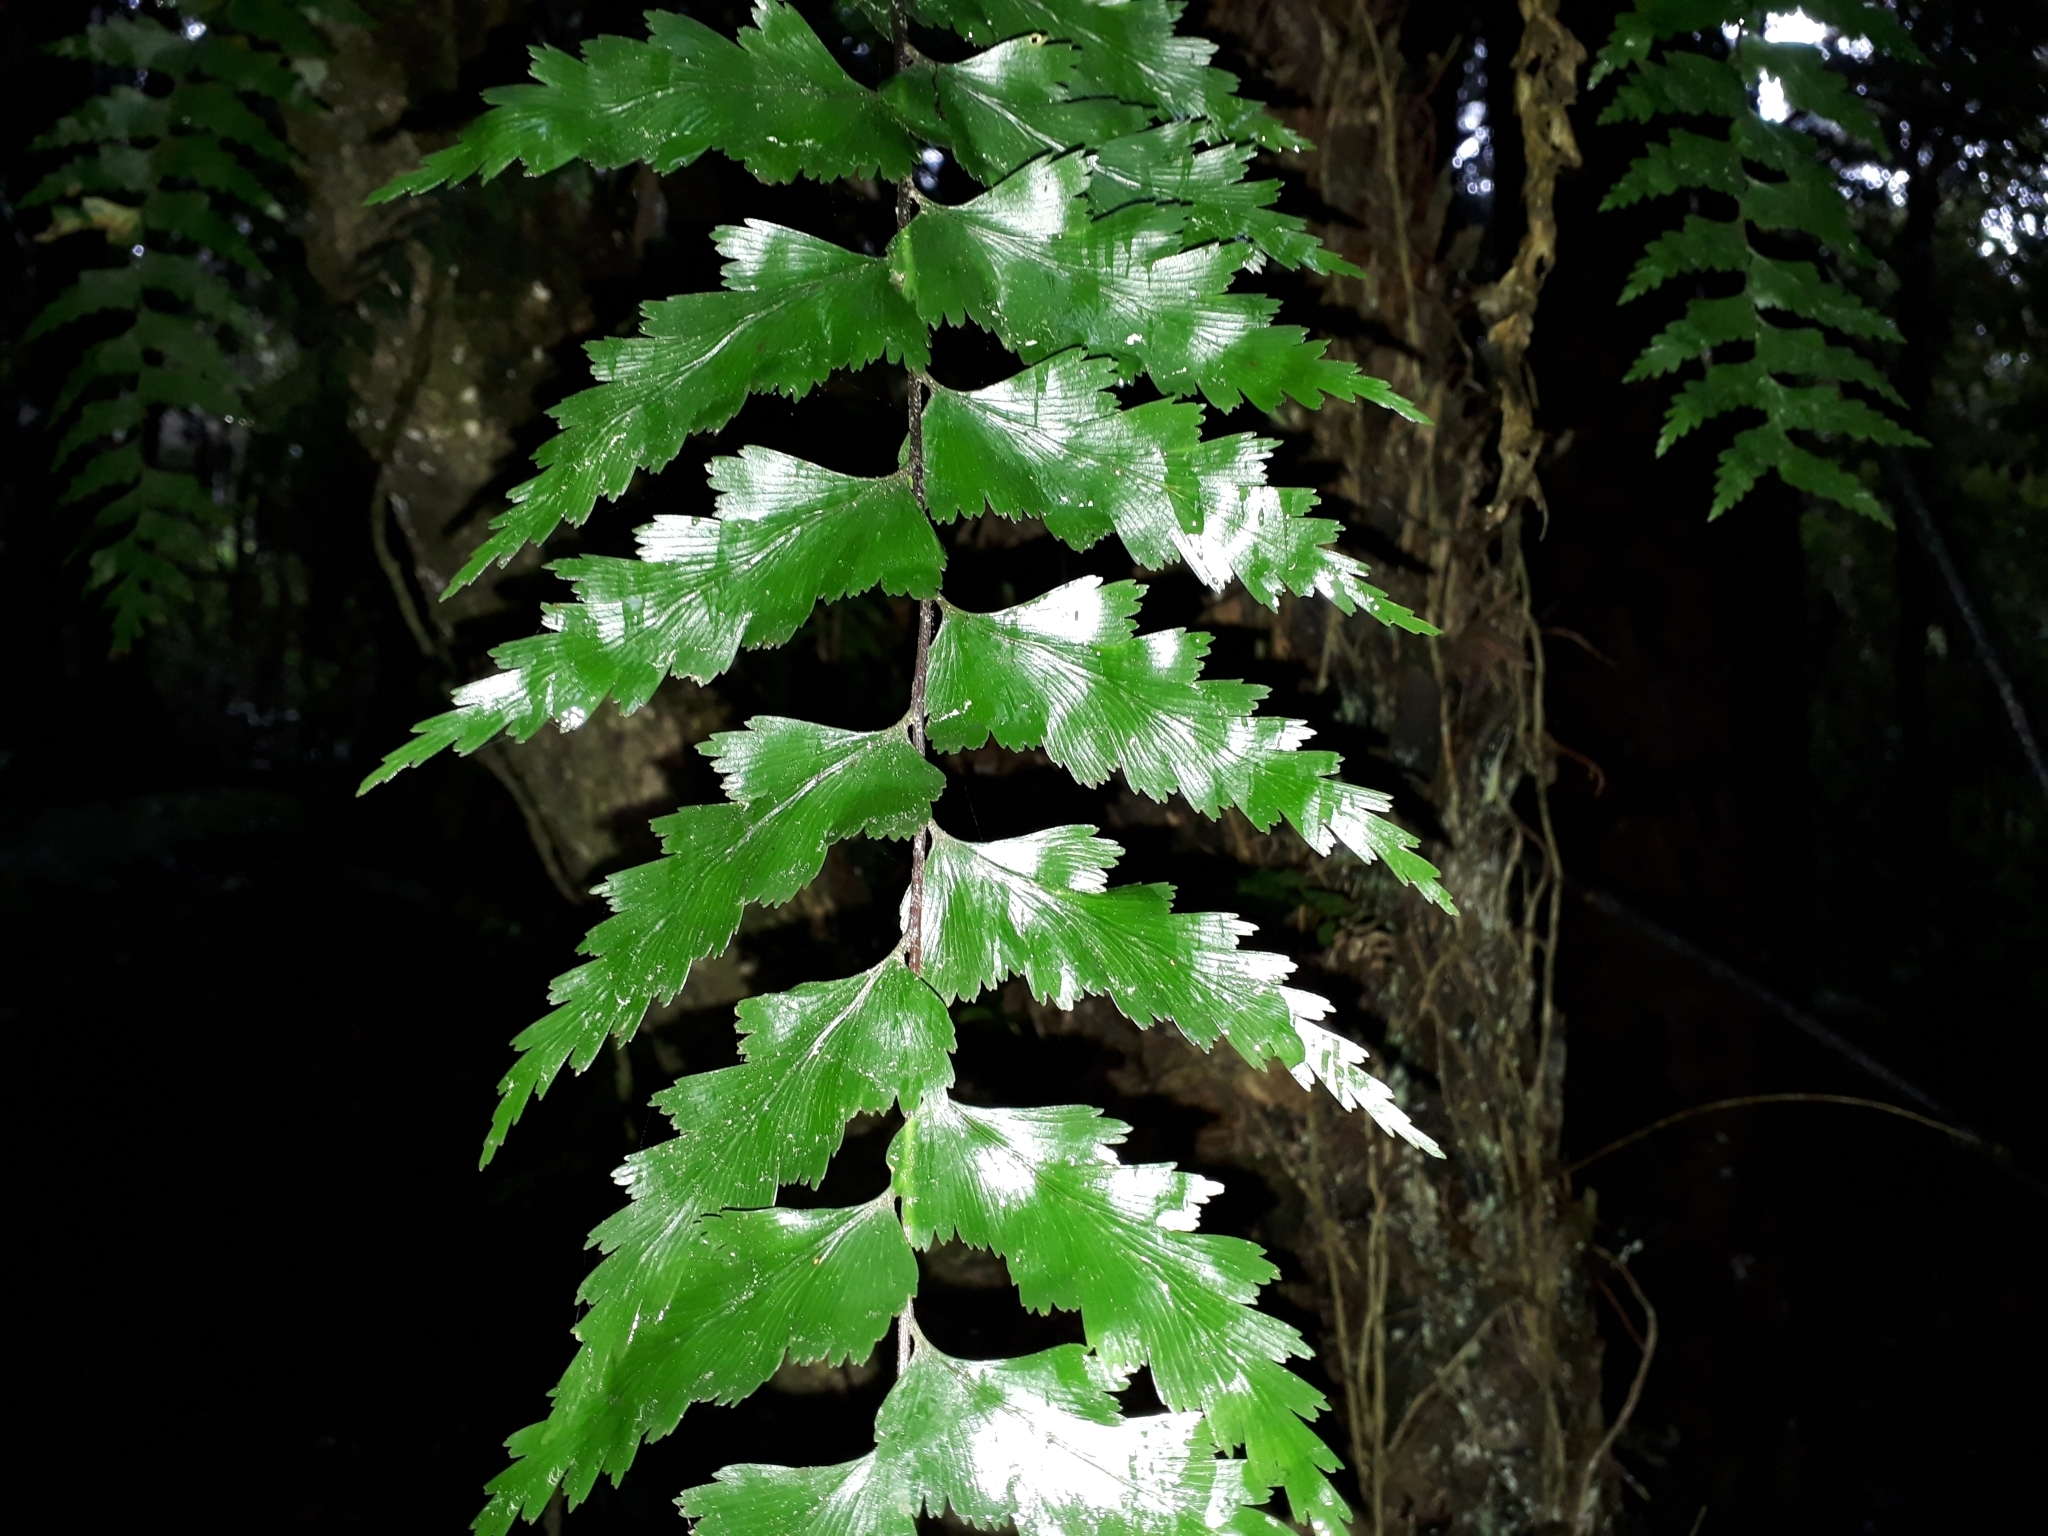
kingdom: Plantae
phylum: Tracheophyta
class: Polypodiopsida
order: Polypodiales
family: Aspleniaceae
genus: Asplenium
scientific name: Asplenium polyodon
